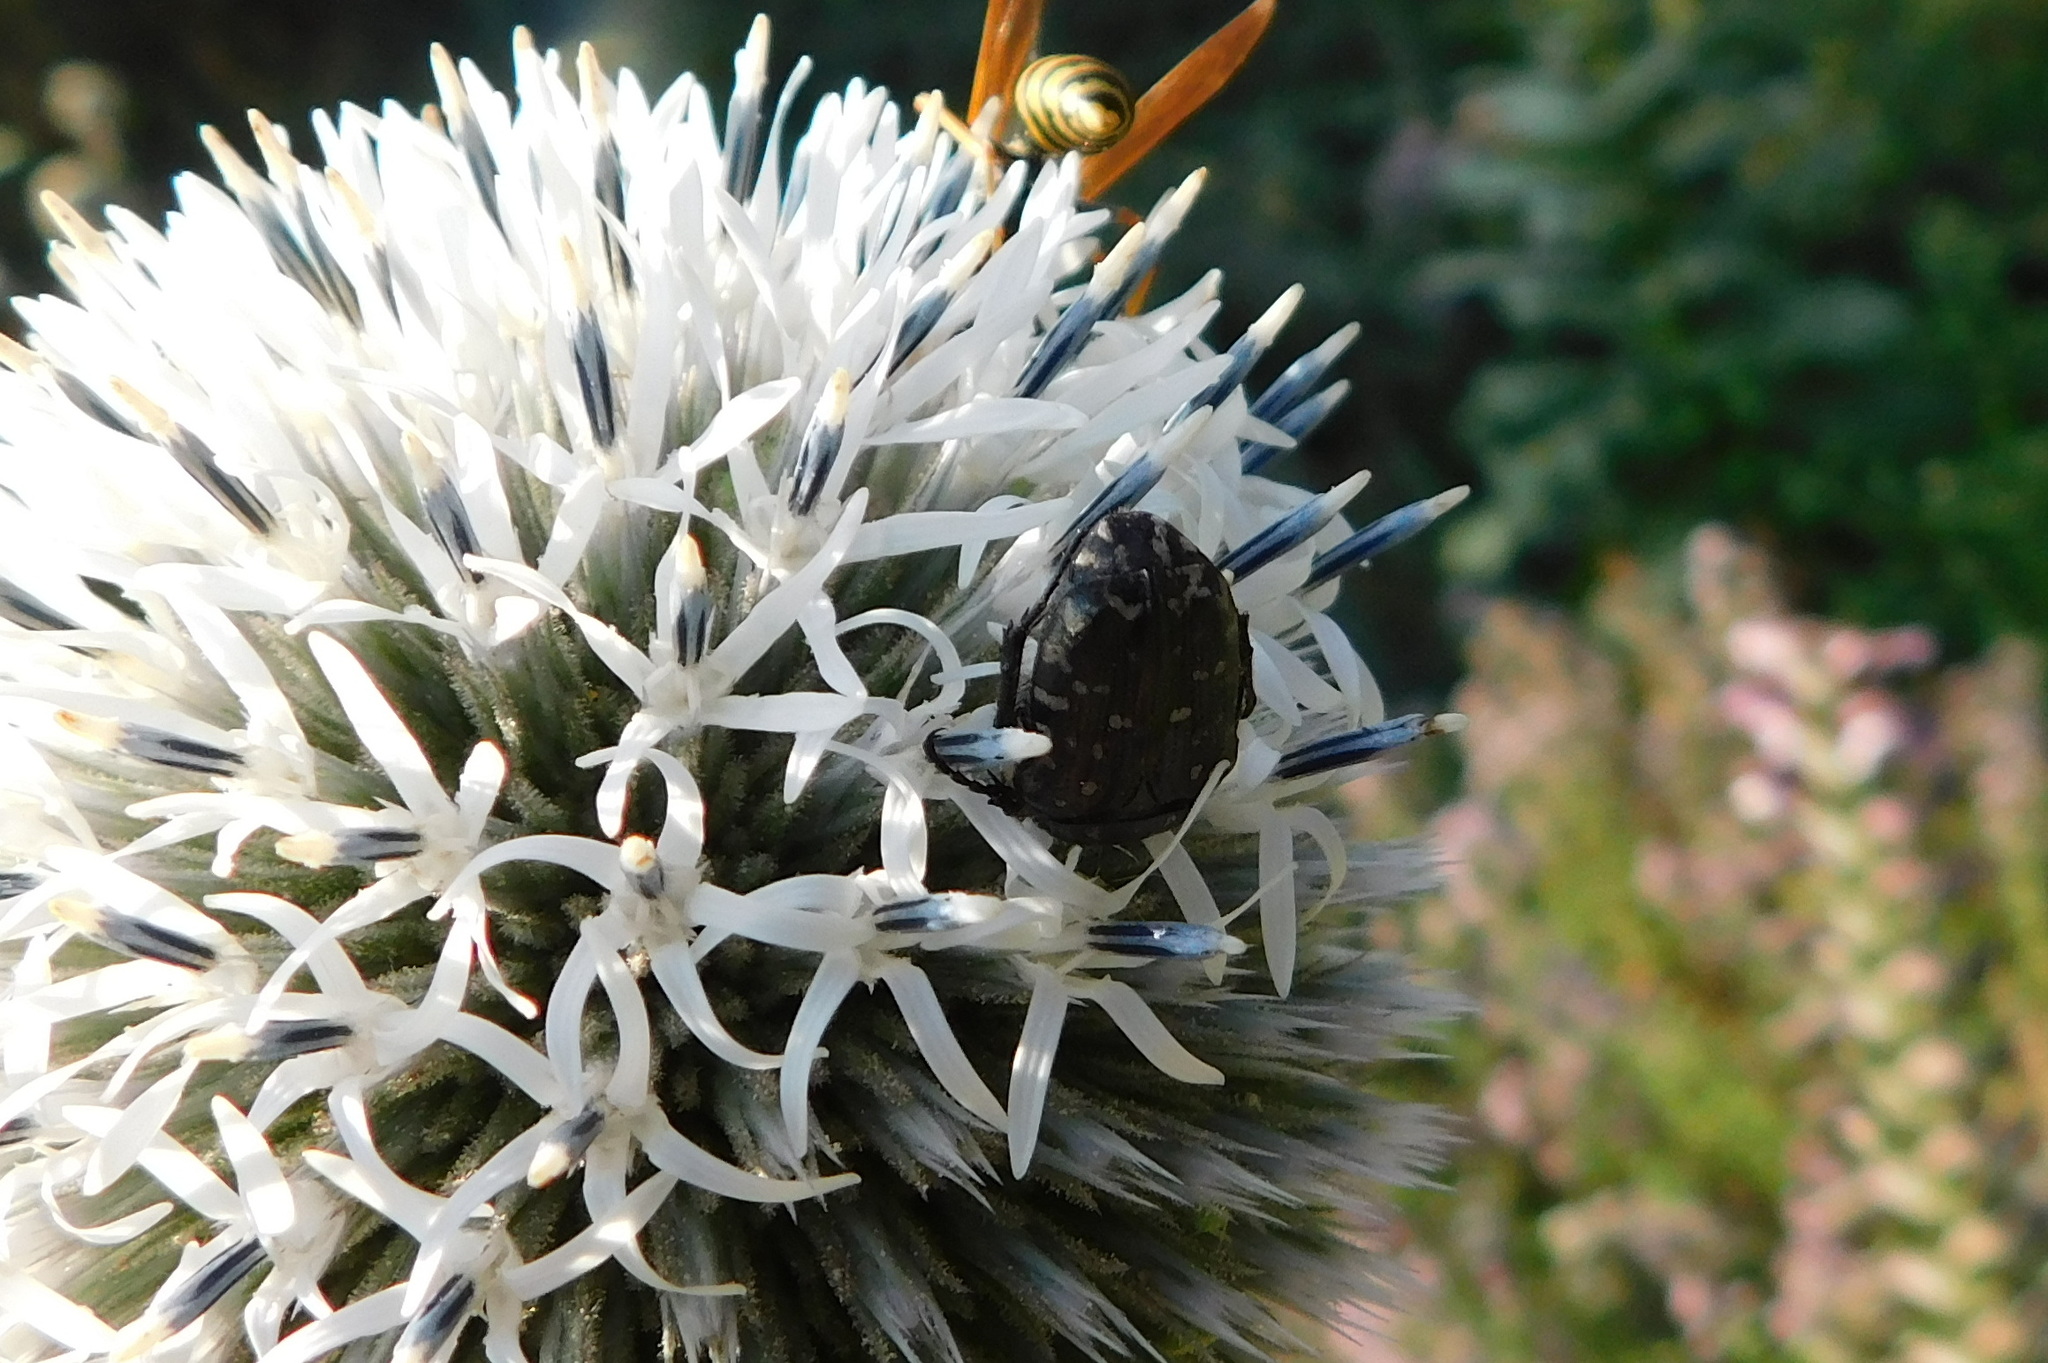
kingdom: Animalia
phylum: Arthropoda
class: Insecta
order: Coleoptera
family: Scarabaeidae
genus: Oxythyrea
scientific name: Oxythyrea funesta
